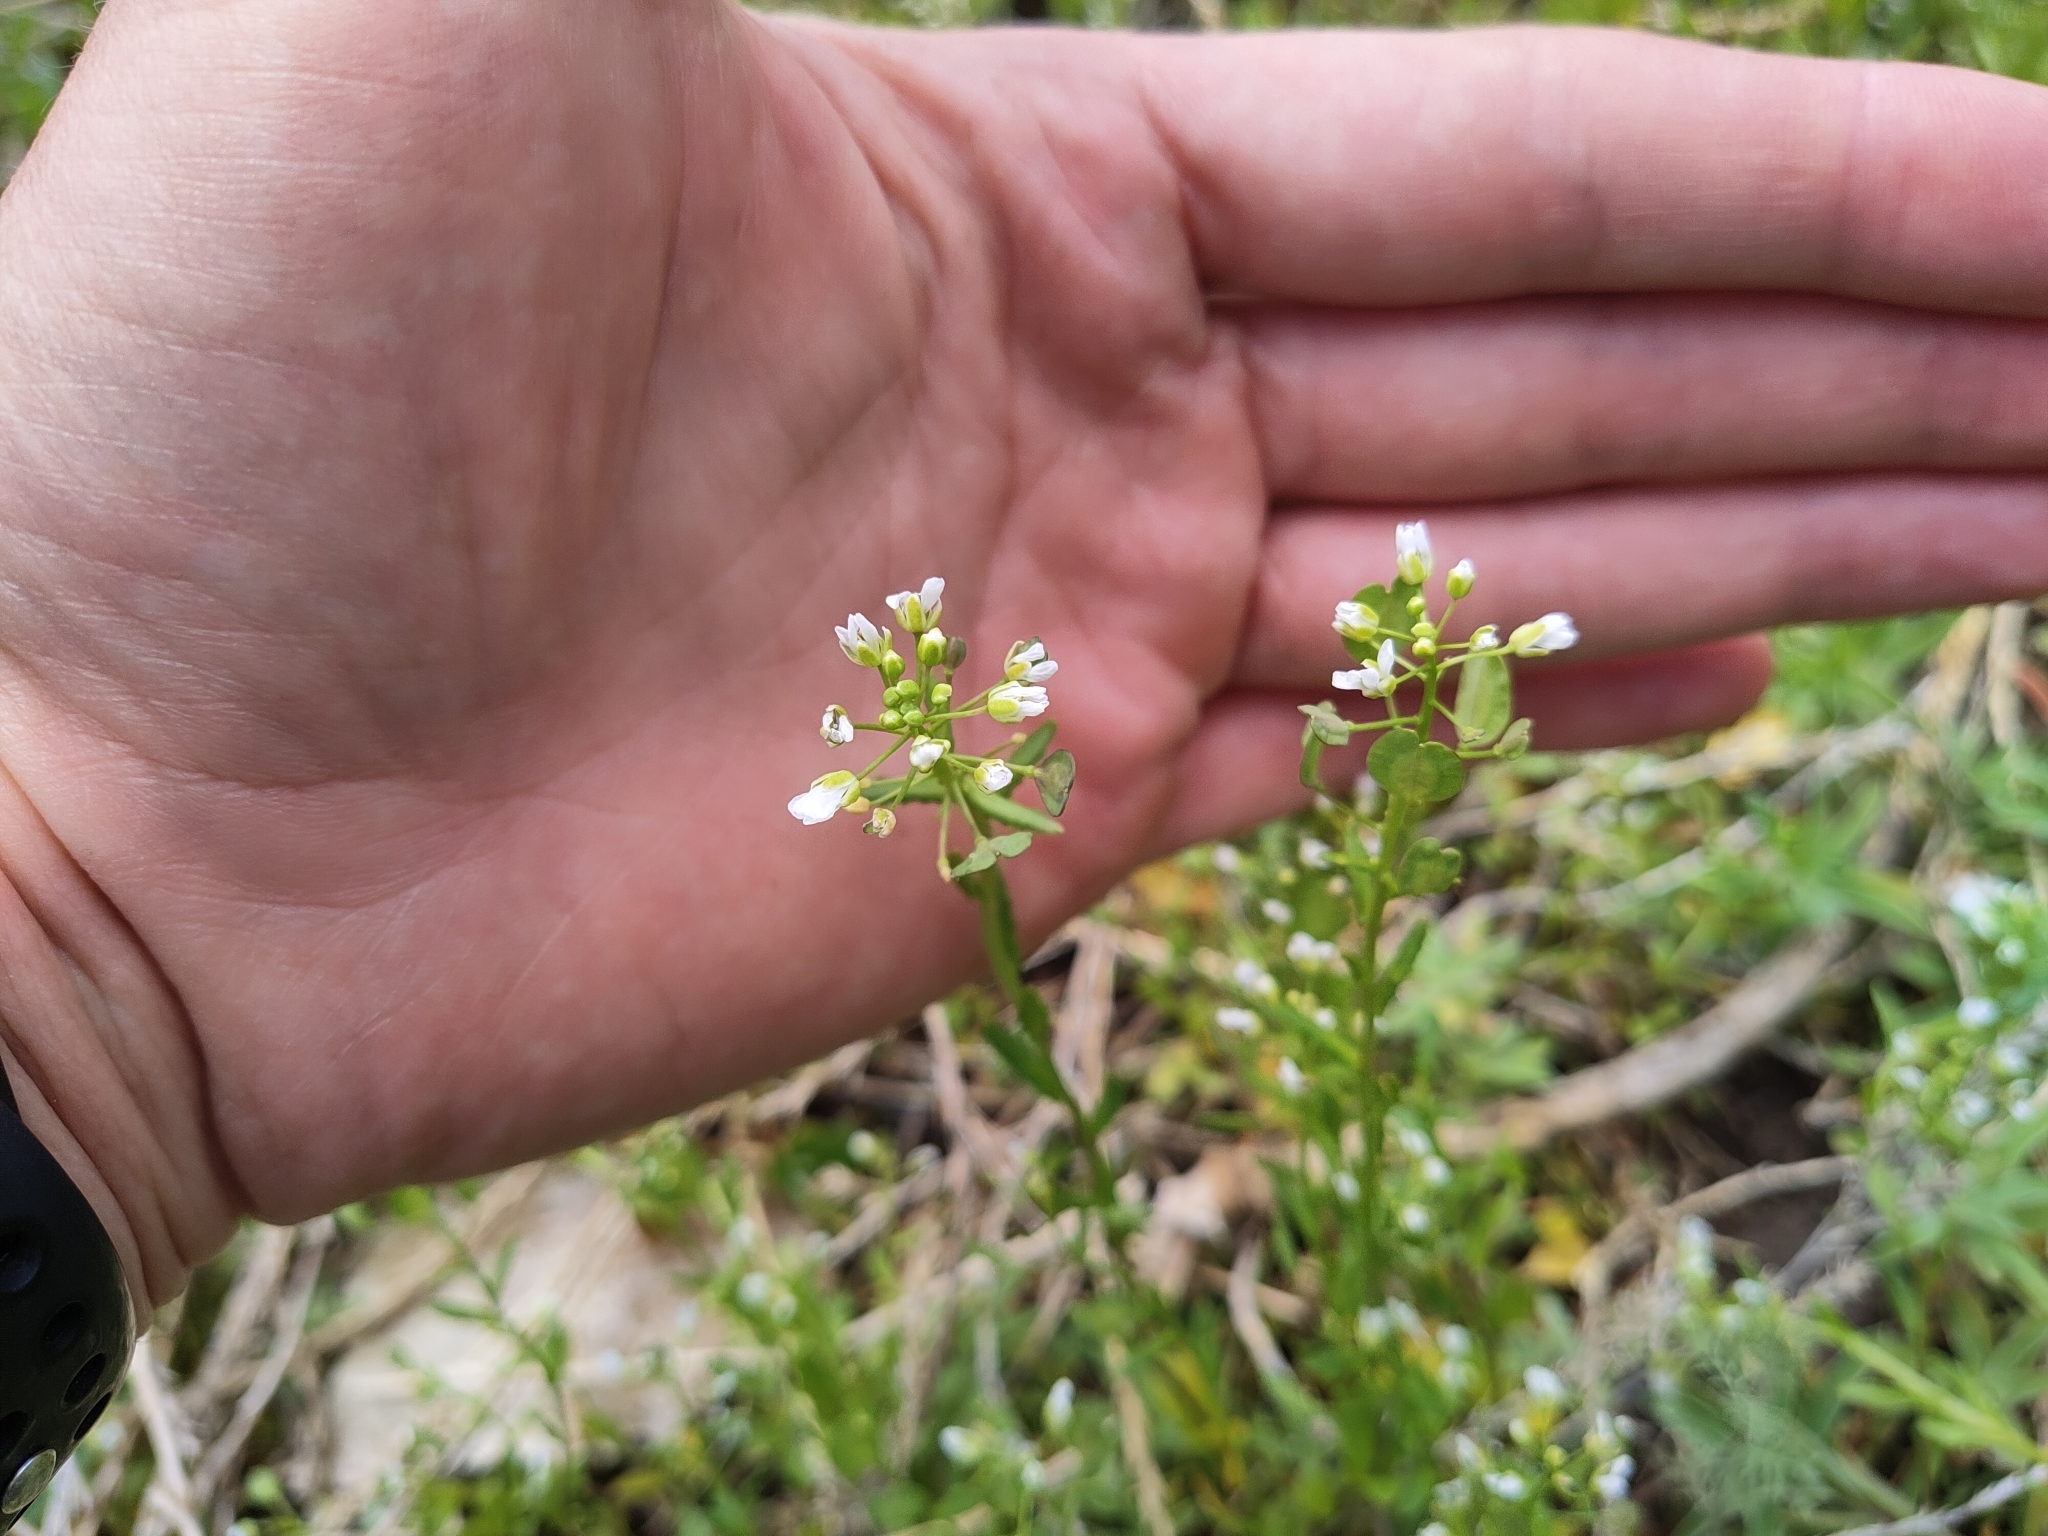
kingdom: Plantae
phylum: Tracheophyta
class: Magnoliopsida
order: Brassicales
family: Brassicaceae
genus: Thlaspi
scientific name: Thlaspi arvense
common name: Field pennycress
